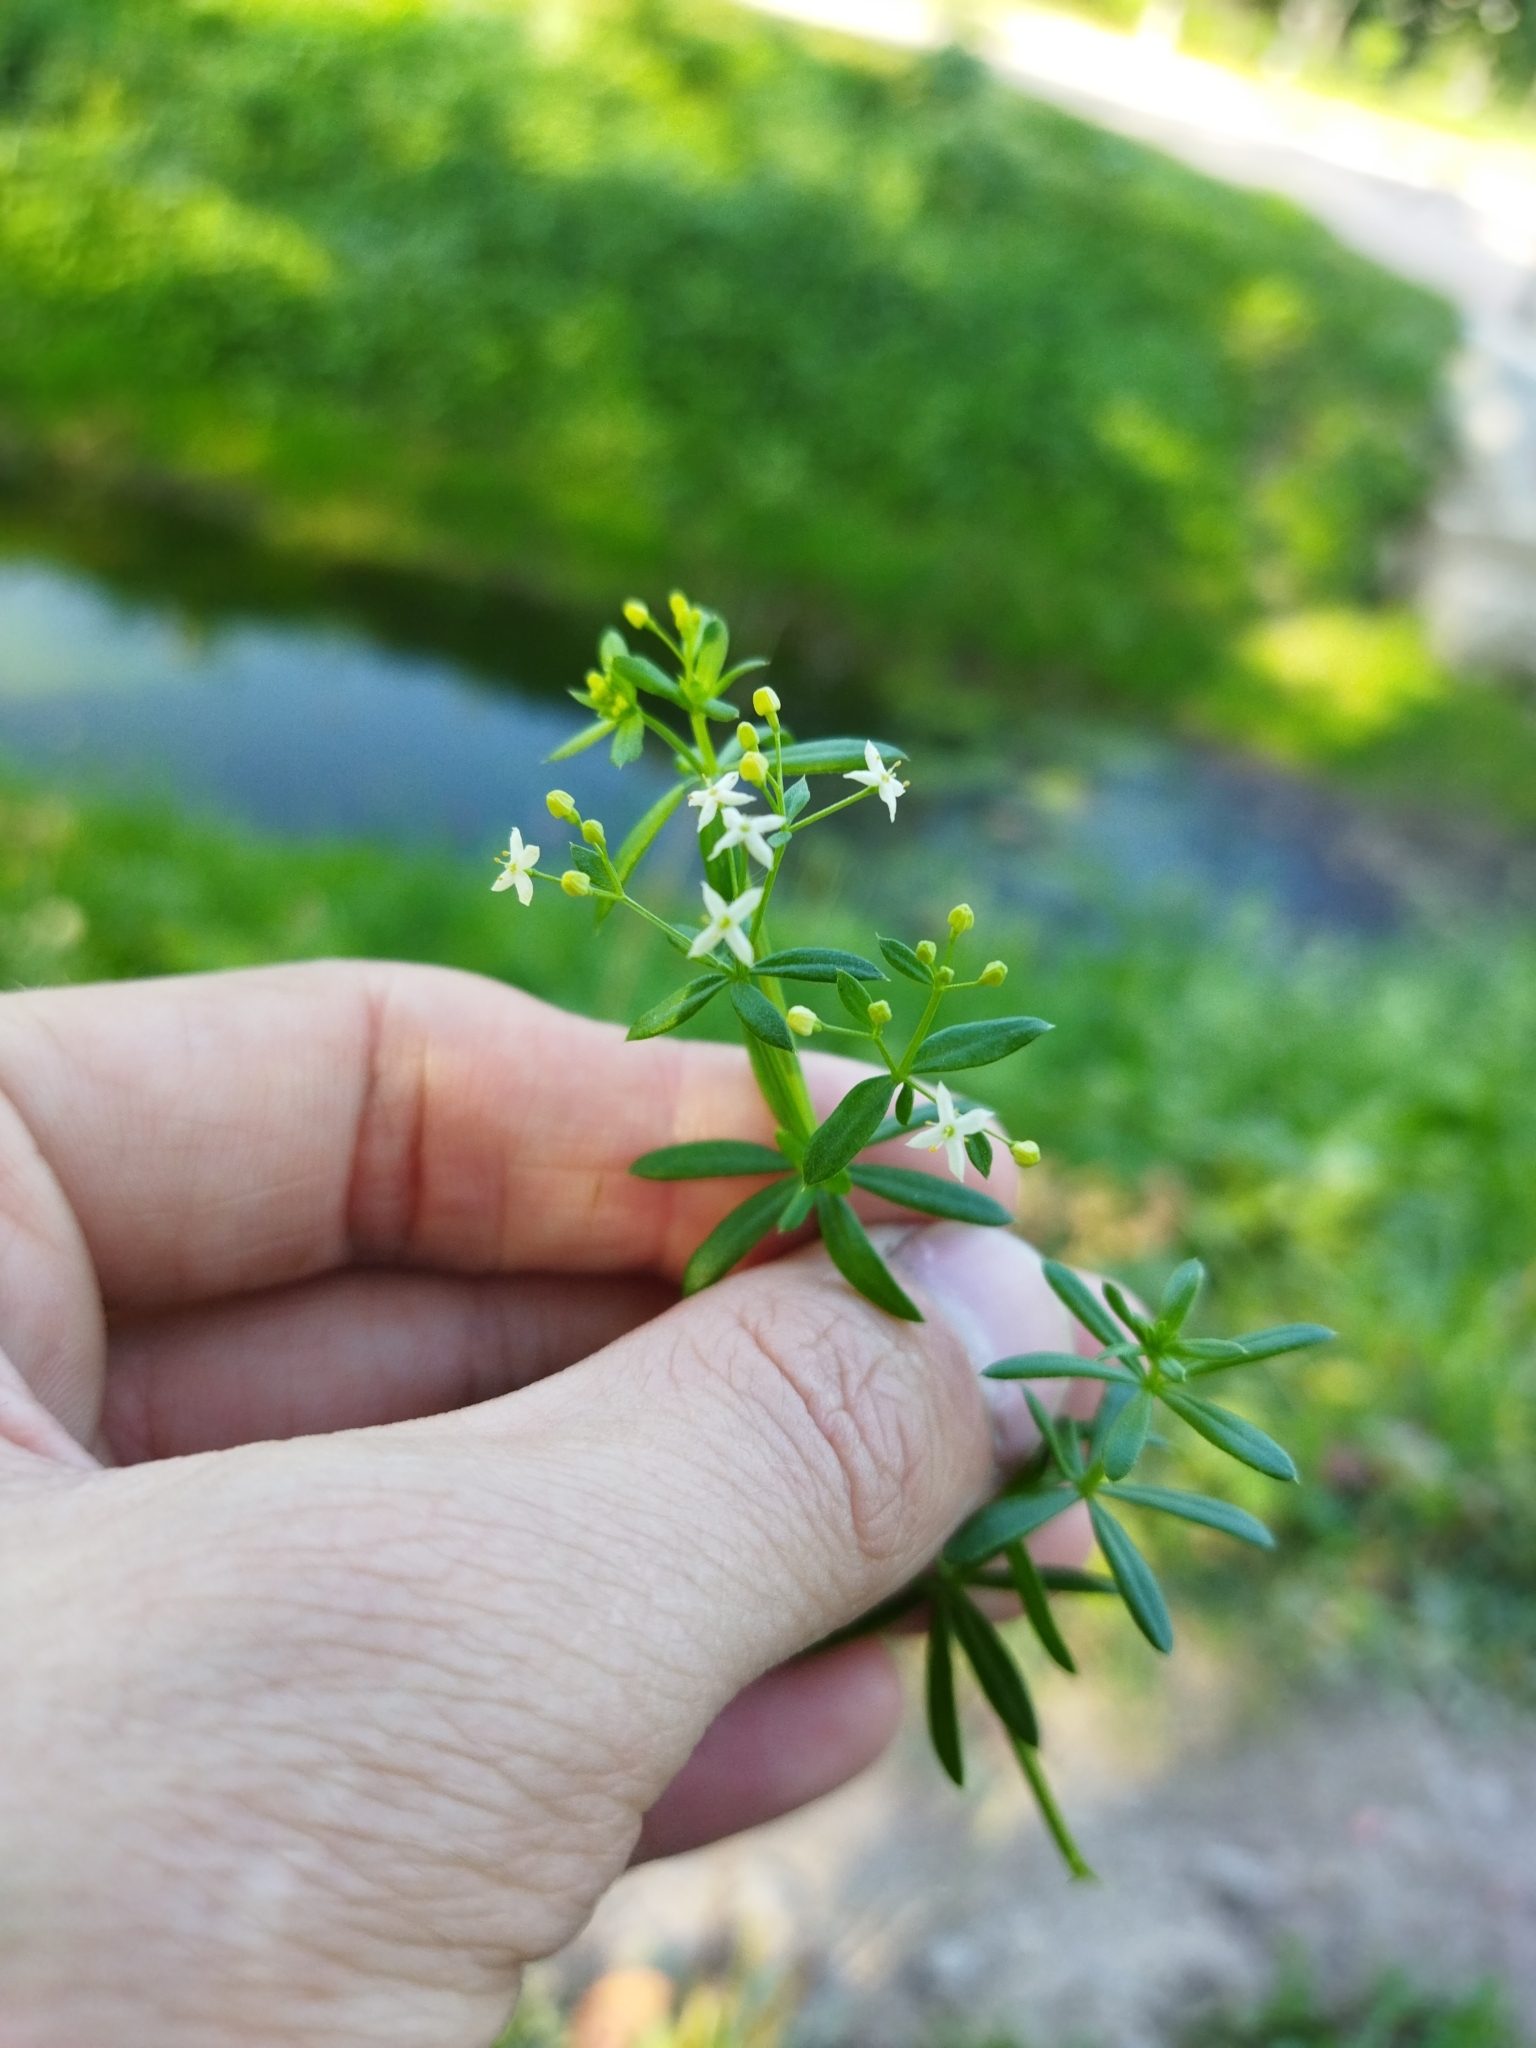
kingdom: Plantae
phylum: Tracheophyta
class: Magnoliopsida
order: Gentianales
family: Rubiaceae
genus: Galium
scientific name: Galium mollugo
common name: Hedge bedstraw
